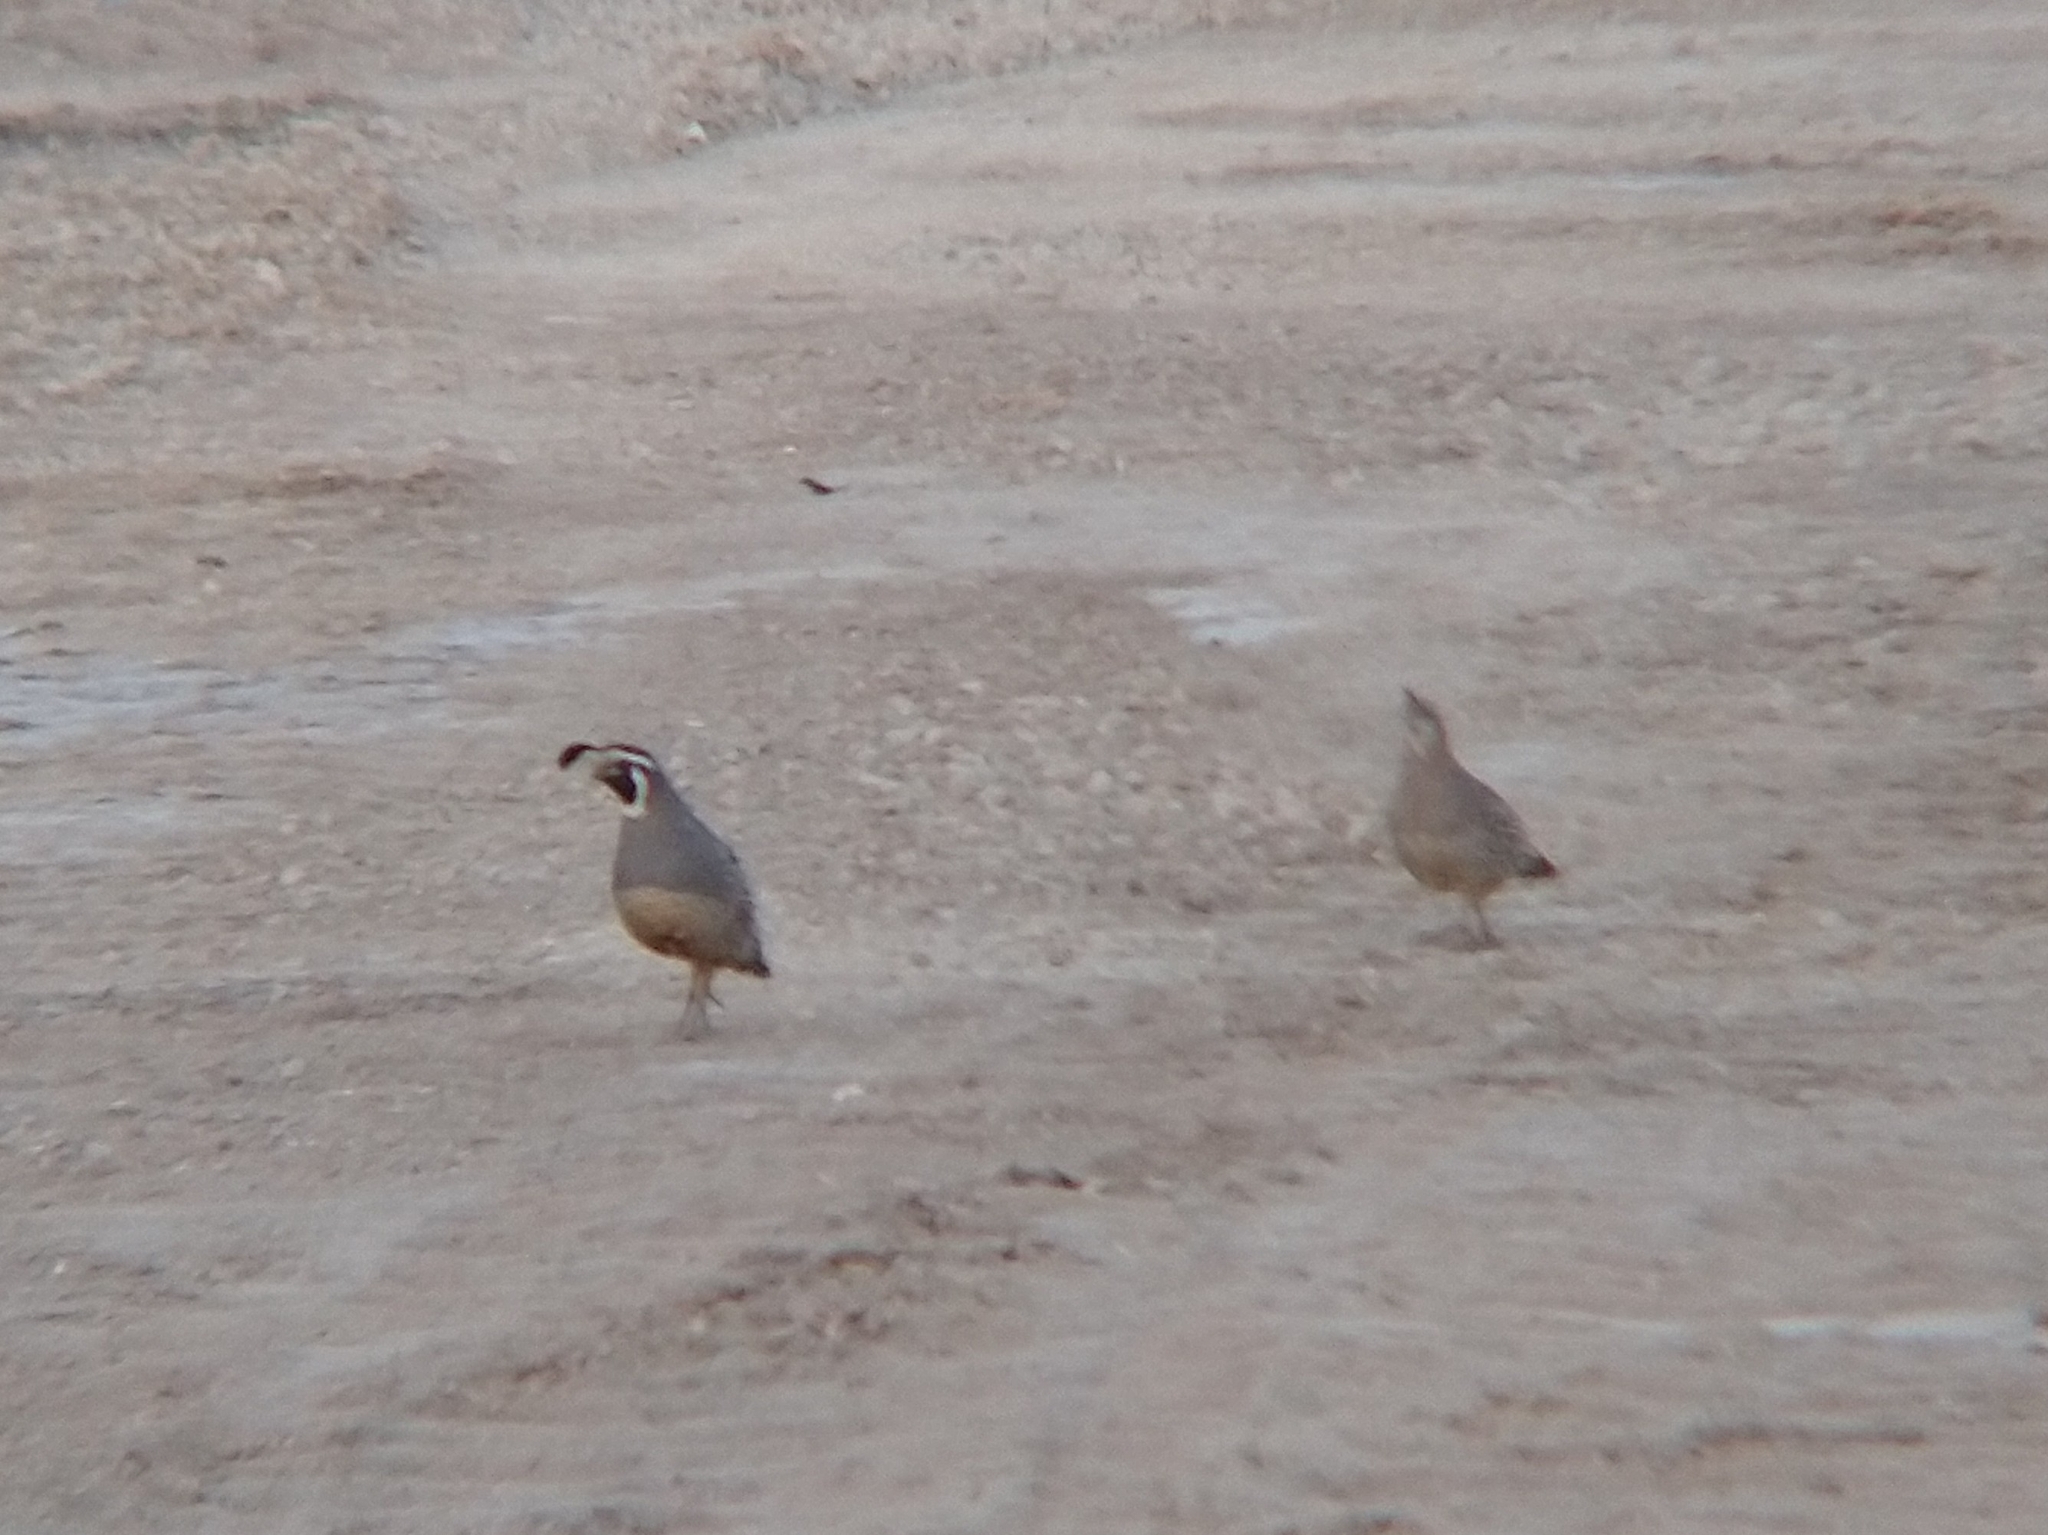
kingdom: Animalia
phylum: Chordata
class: Aves
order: Galliformes
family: Odontophoridae
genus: Callipepla
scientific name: Callipepla californica
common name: California quail
